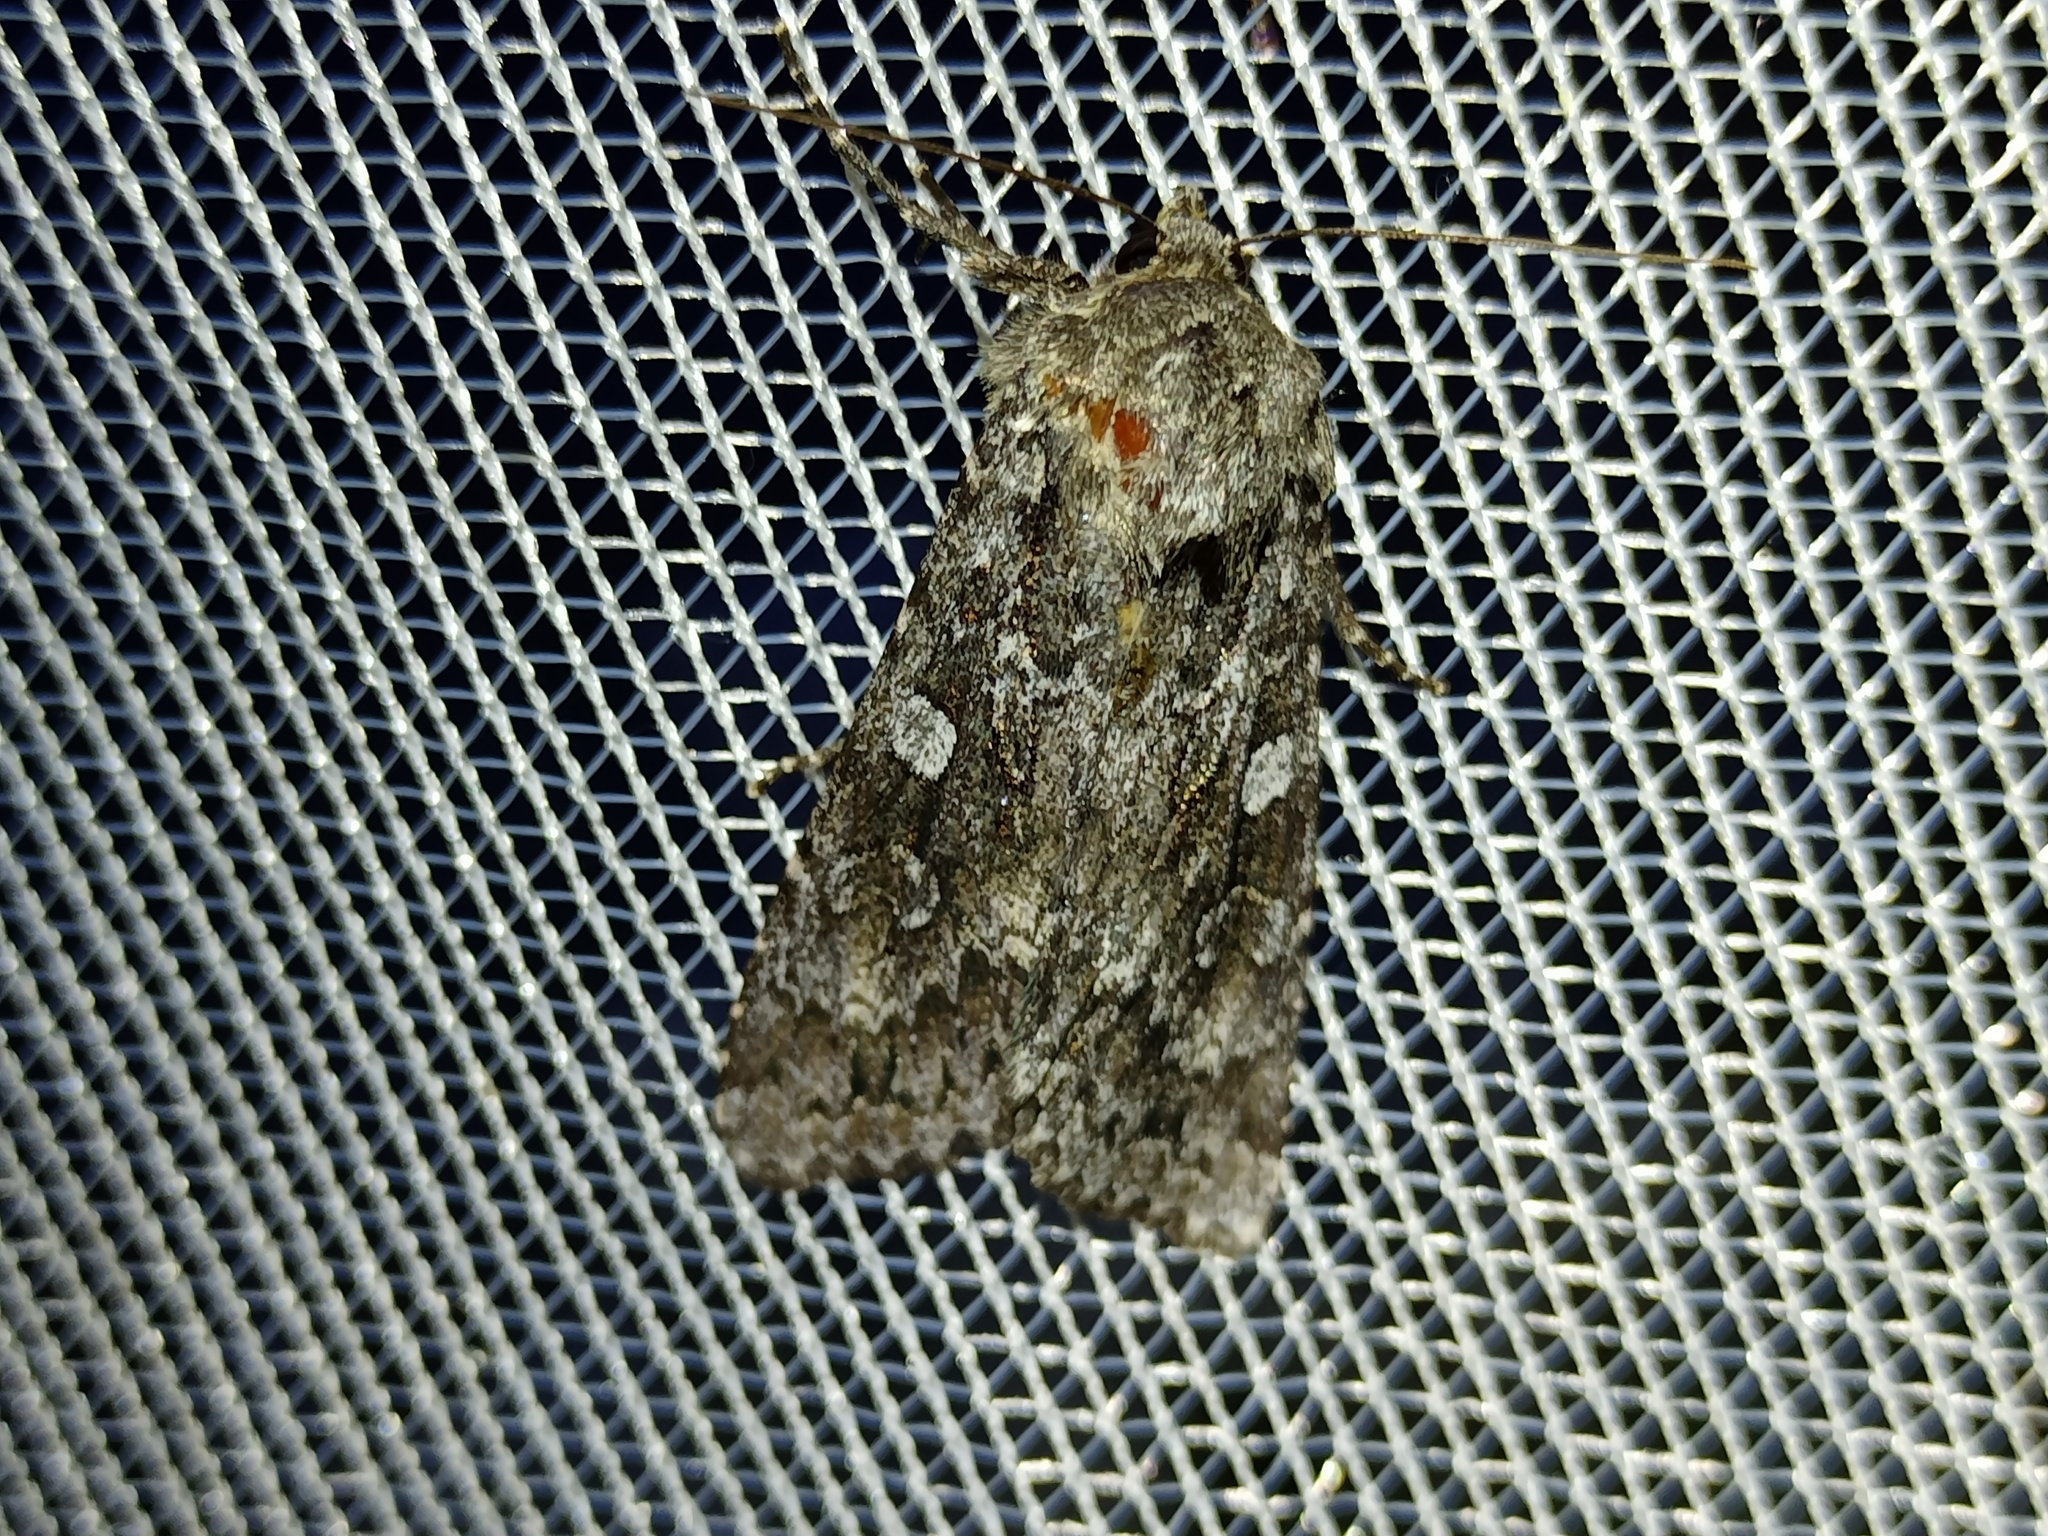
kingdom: Animalia
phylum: Arthropoda
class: Insecta
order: Lepidoptera
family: Noctuidae
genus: Eurois
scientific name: Eurois occulta
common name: Great brocade
